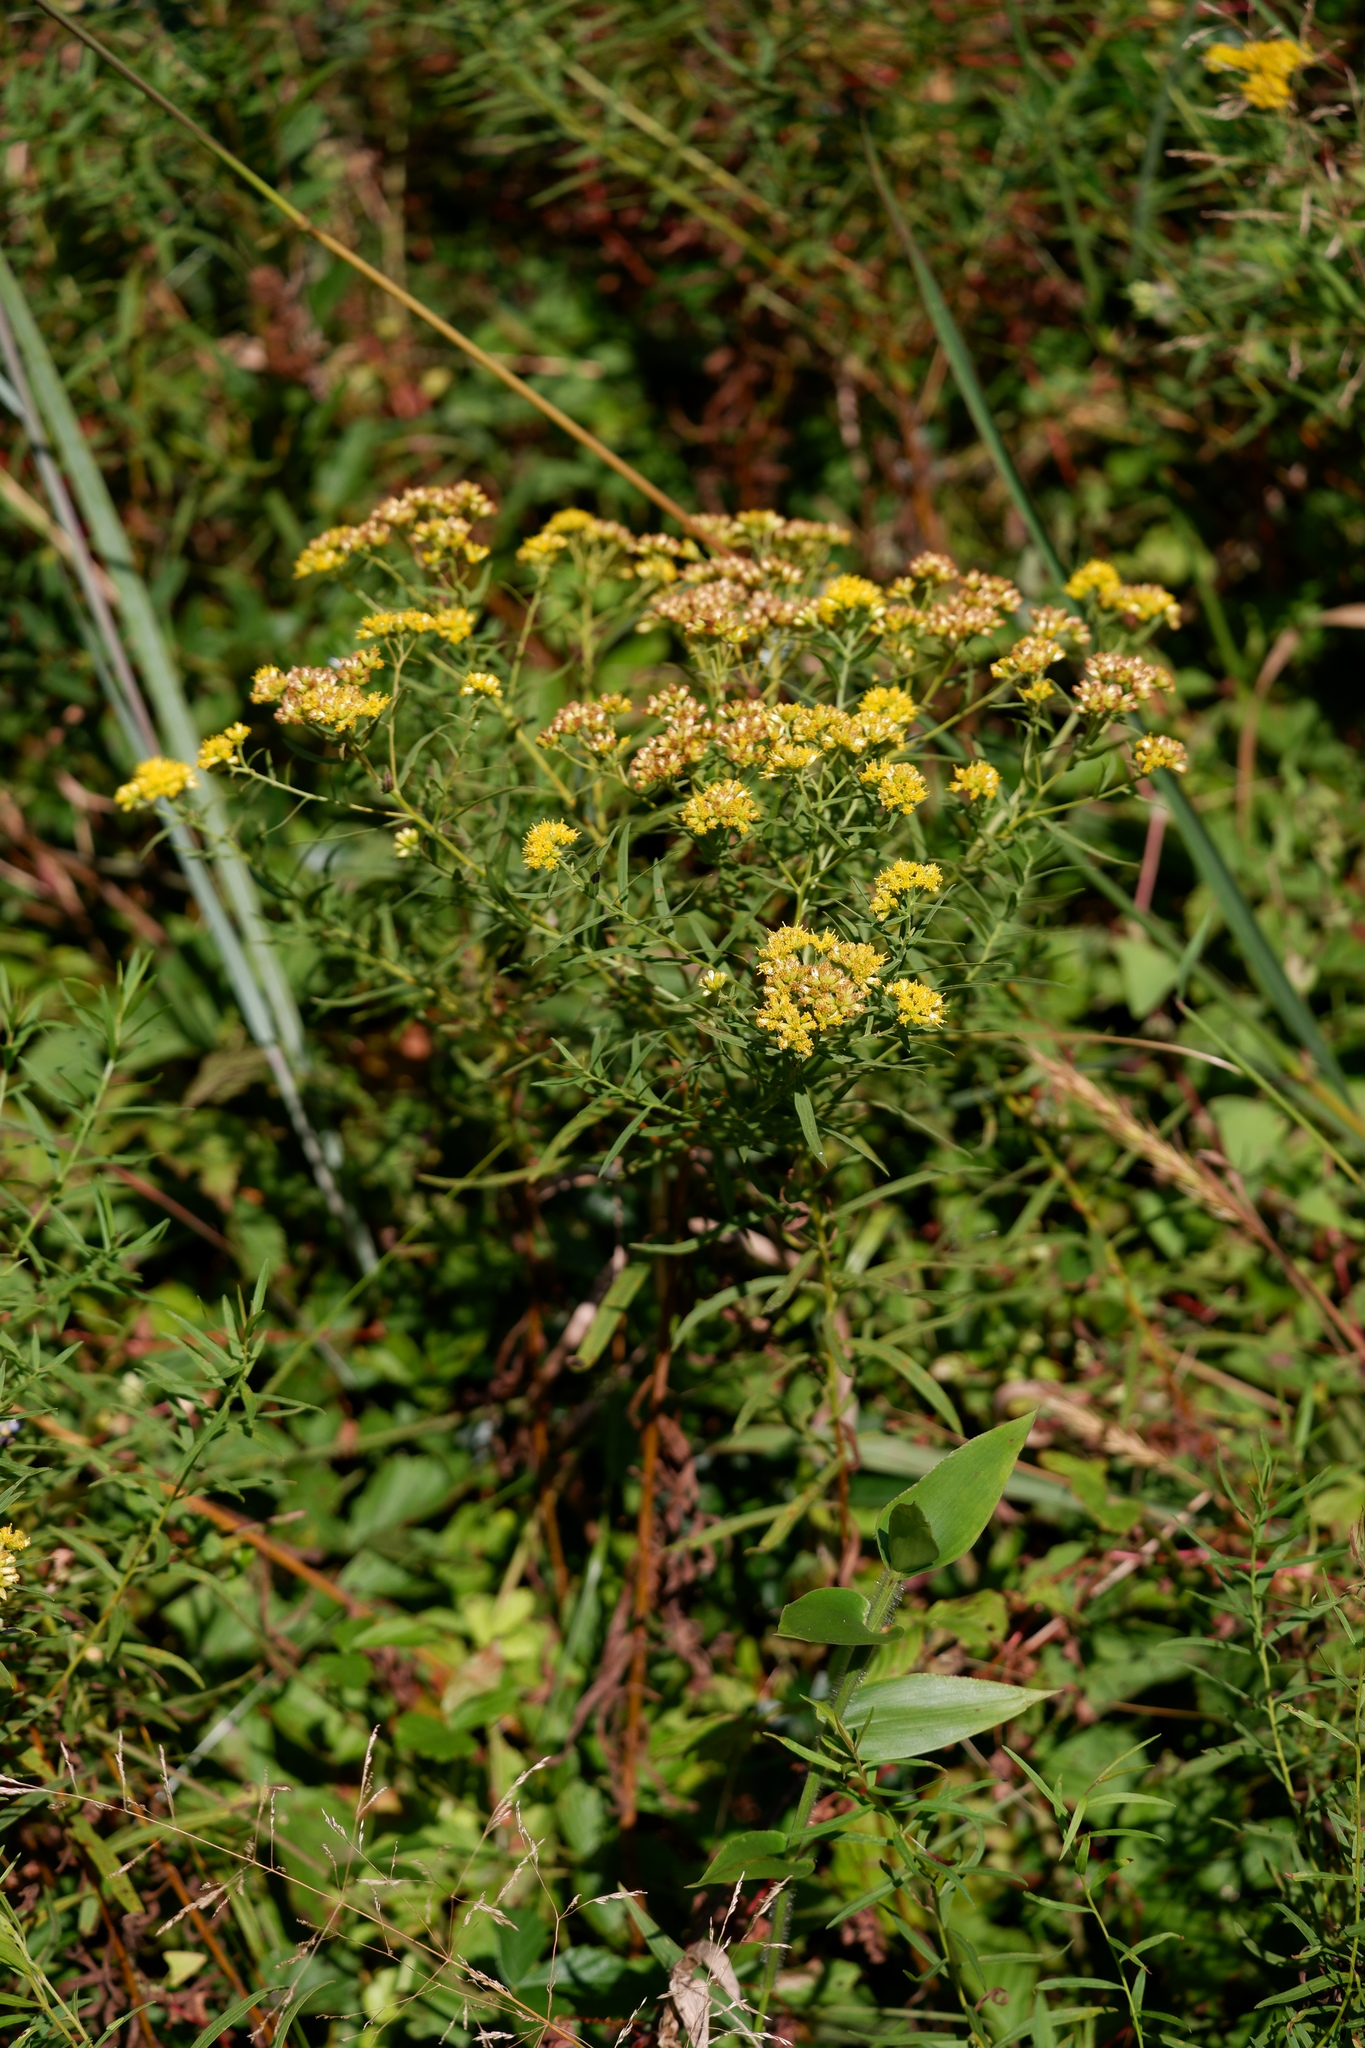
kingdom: Plantae
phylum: Tracheophyta
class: Magnoliopsida
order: Asterales
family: Asteraceae
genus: Euthamia
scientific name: Euthamia graminifolia
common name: Common goldentop
